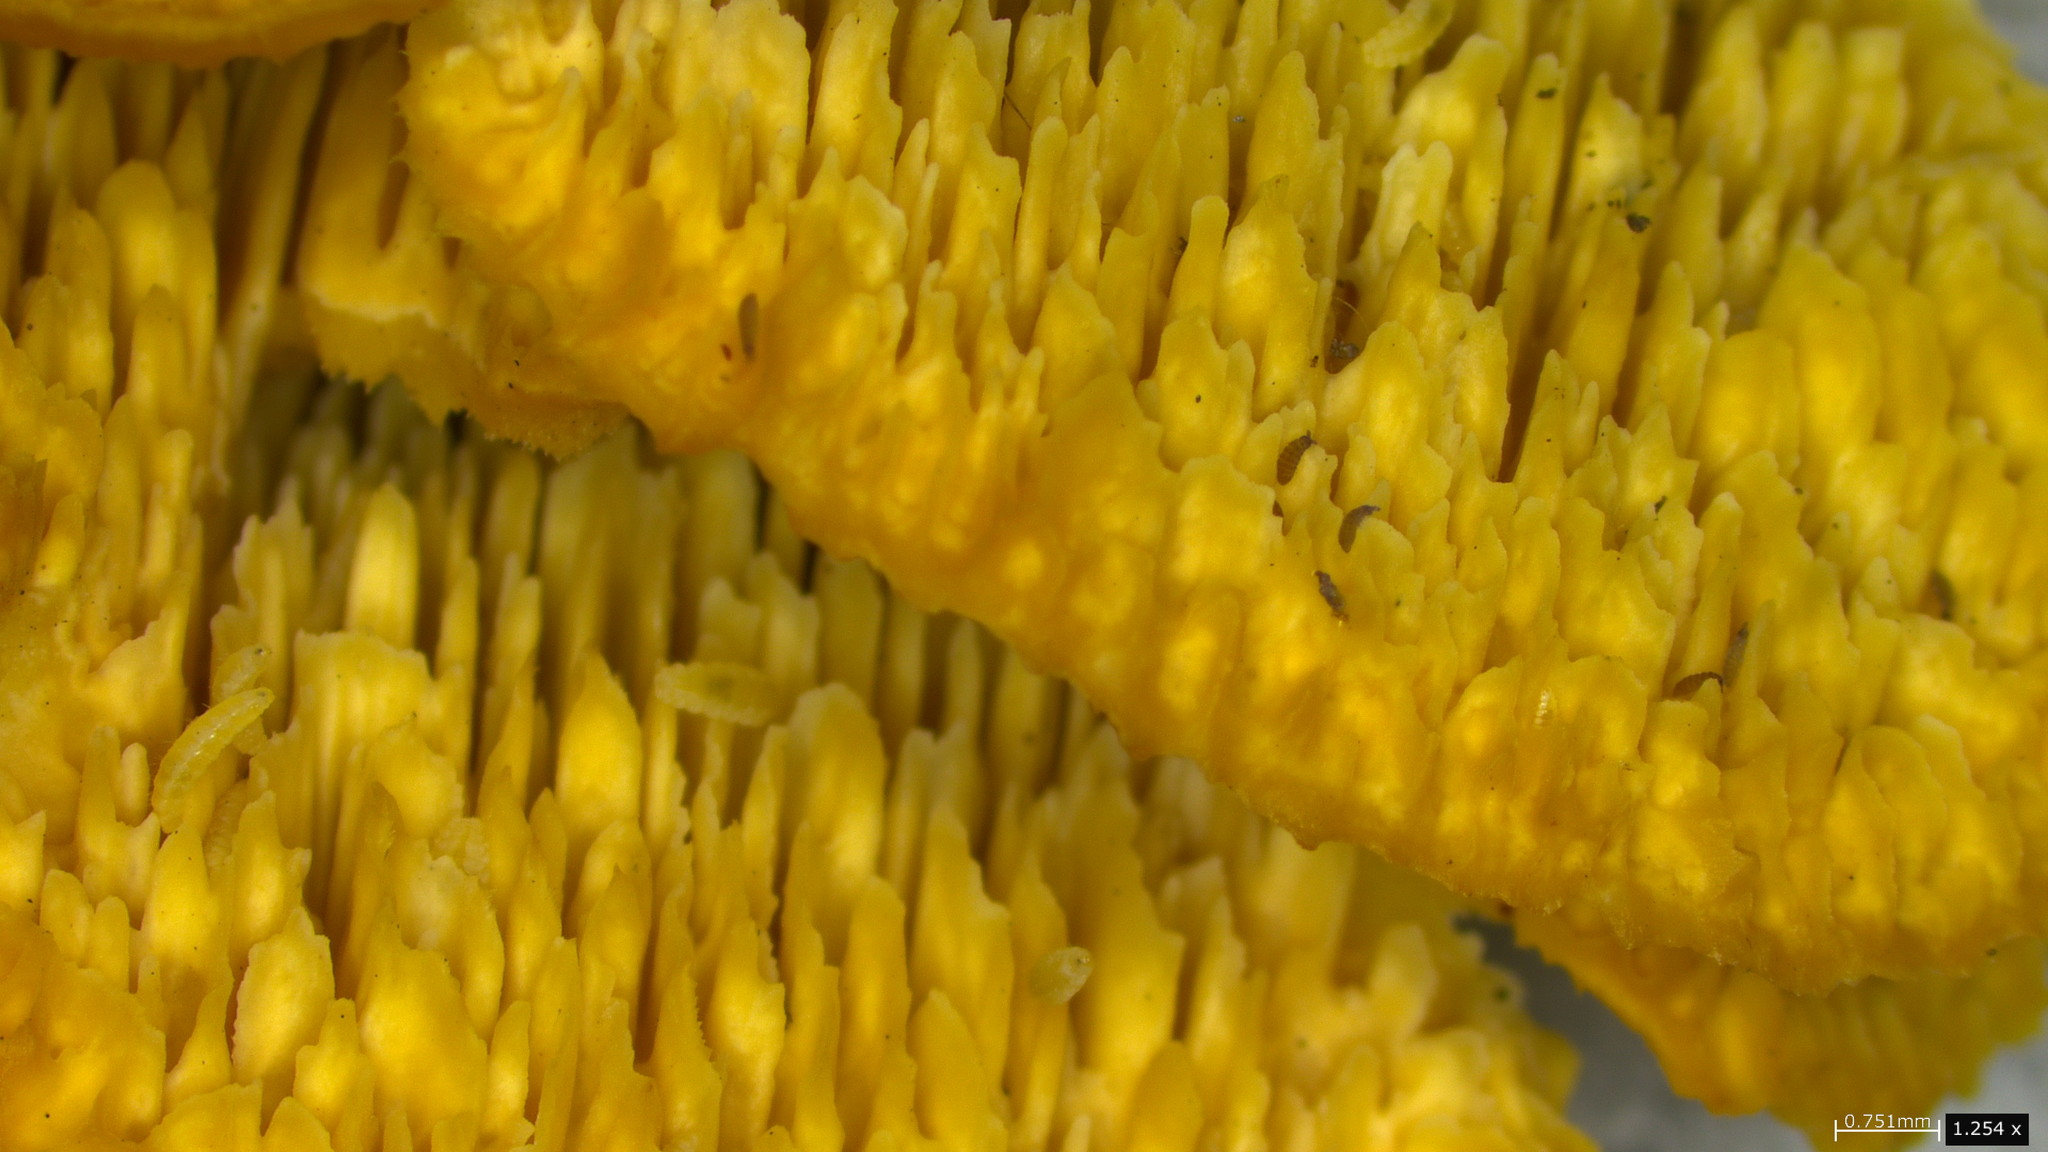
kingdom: Fungi
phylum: Basidiomycota
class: Agaricomycetes
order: Polyporales
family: Irpicaceae
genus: Irpex
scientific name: Irpex lacteus
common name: Milk-white toothed polypore
